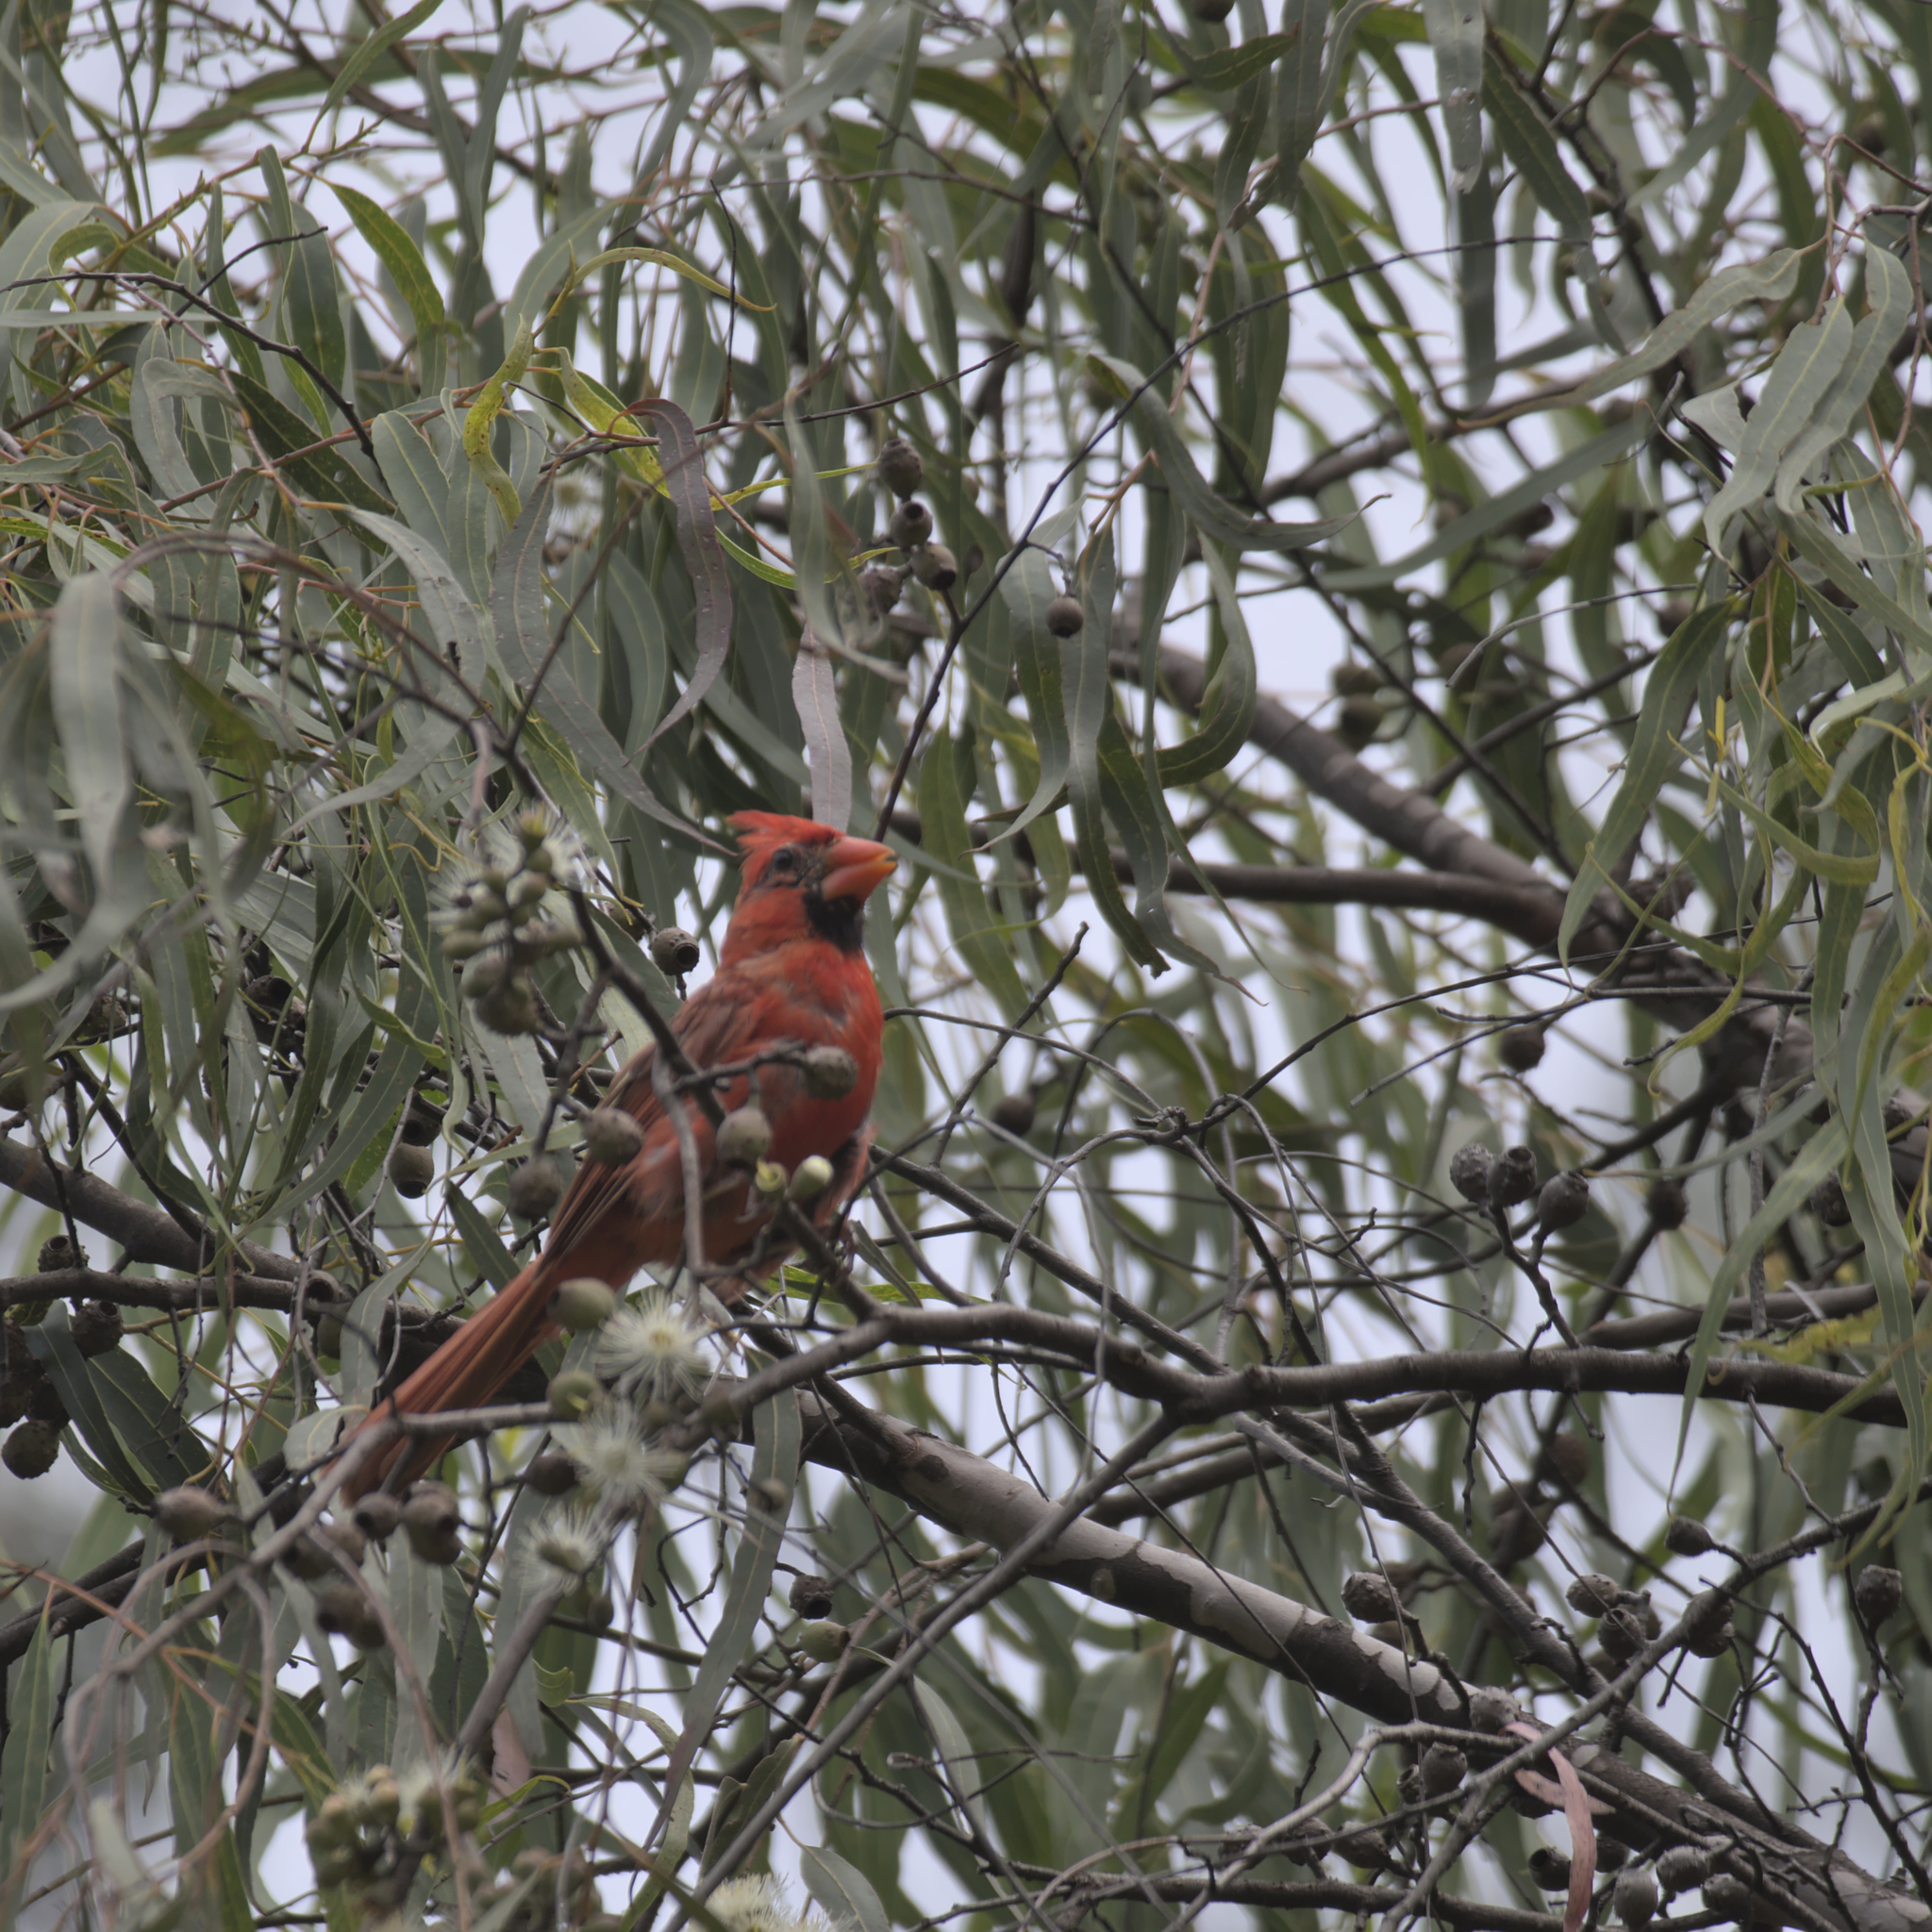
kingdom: Animalia
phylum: Chordata
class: Aves
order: Passeriformes
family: Cardinalidae
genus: Cardinalis
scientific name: Cardinalis cardinalis
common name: Northern cardinal
